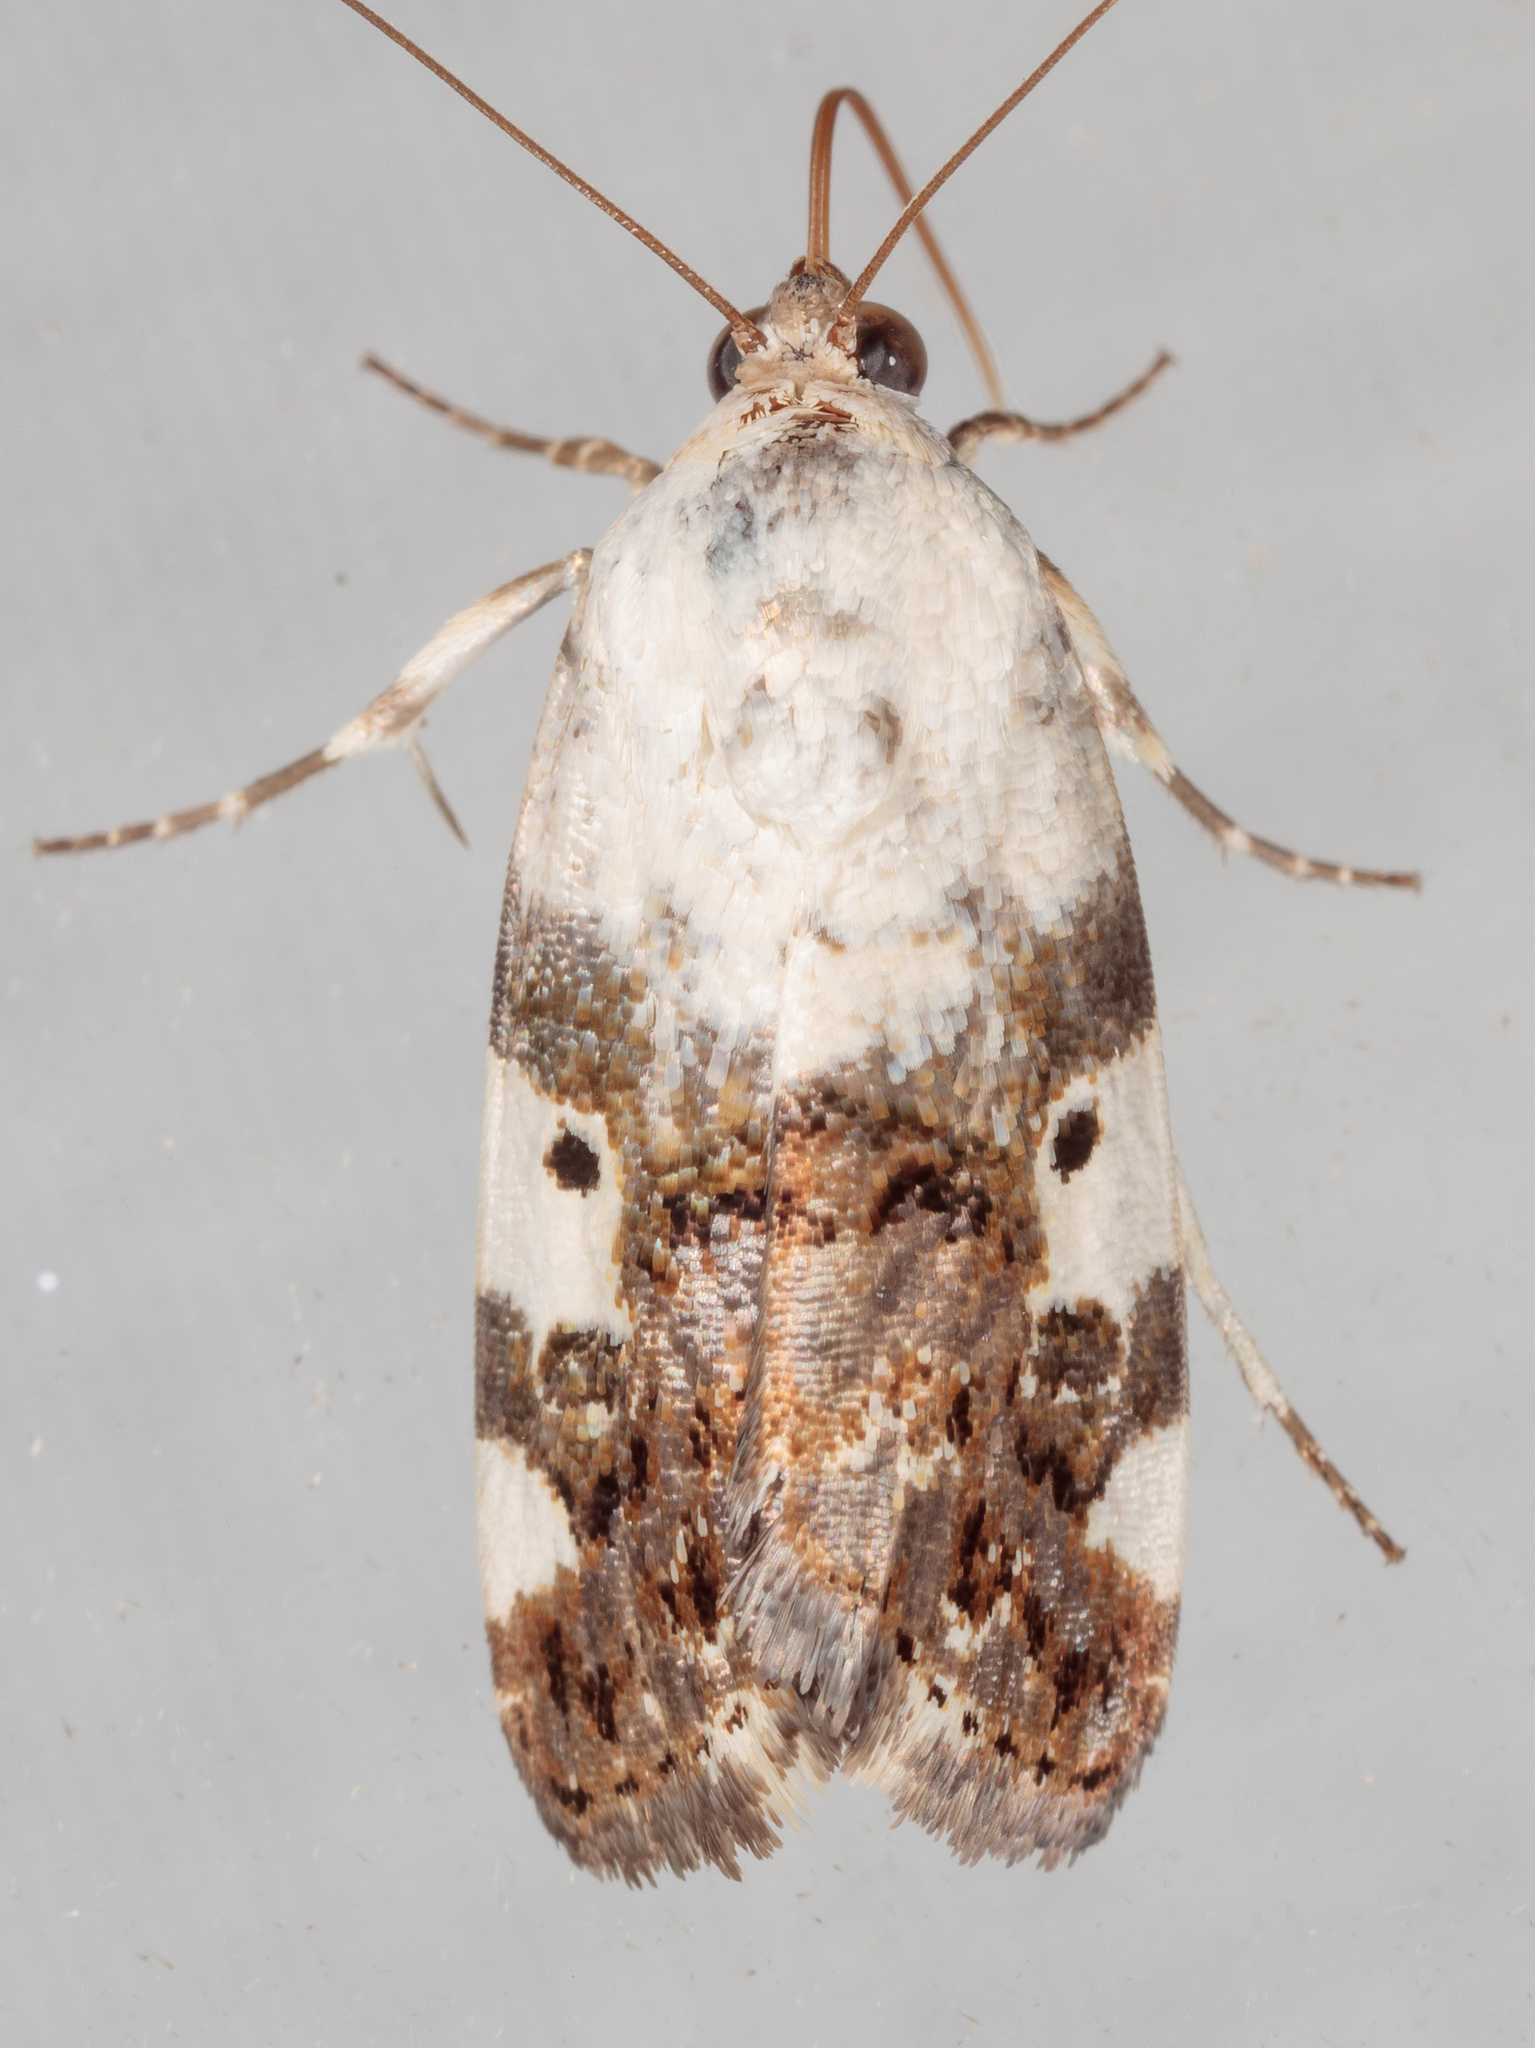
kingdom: Animalia
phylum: Arthropoda
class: Insecta
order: Lepidoptera
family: Noctuidae
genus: Acontia
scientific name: Acontia aprica
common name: Nun
